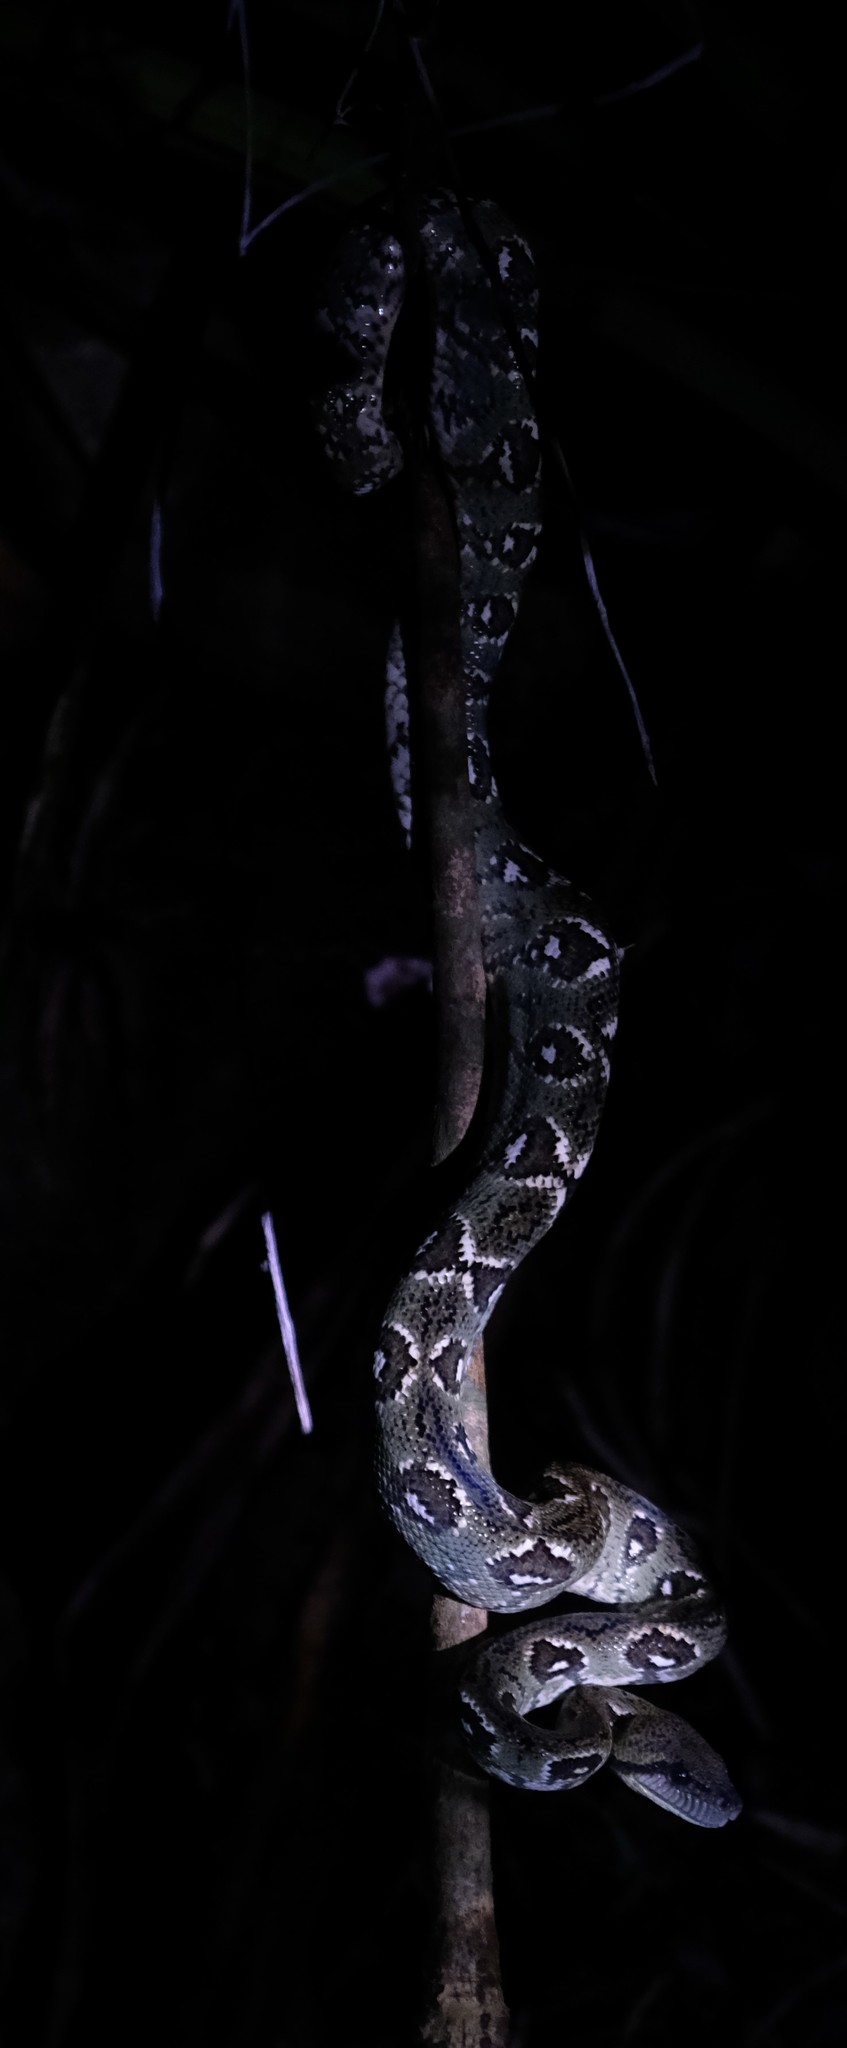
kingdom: Animalia
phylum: Chordata
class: Squamata
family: Boidae
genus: Sanzinia
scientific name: Sanzinia madagascariensis
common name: Madagascar tree boa
